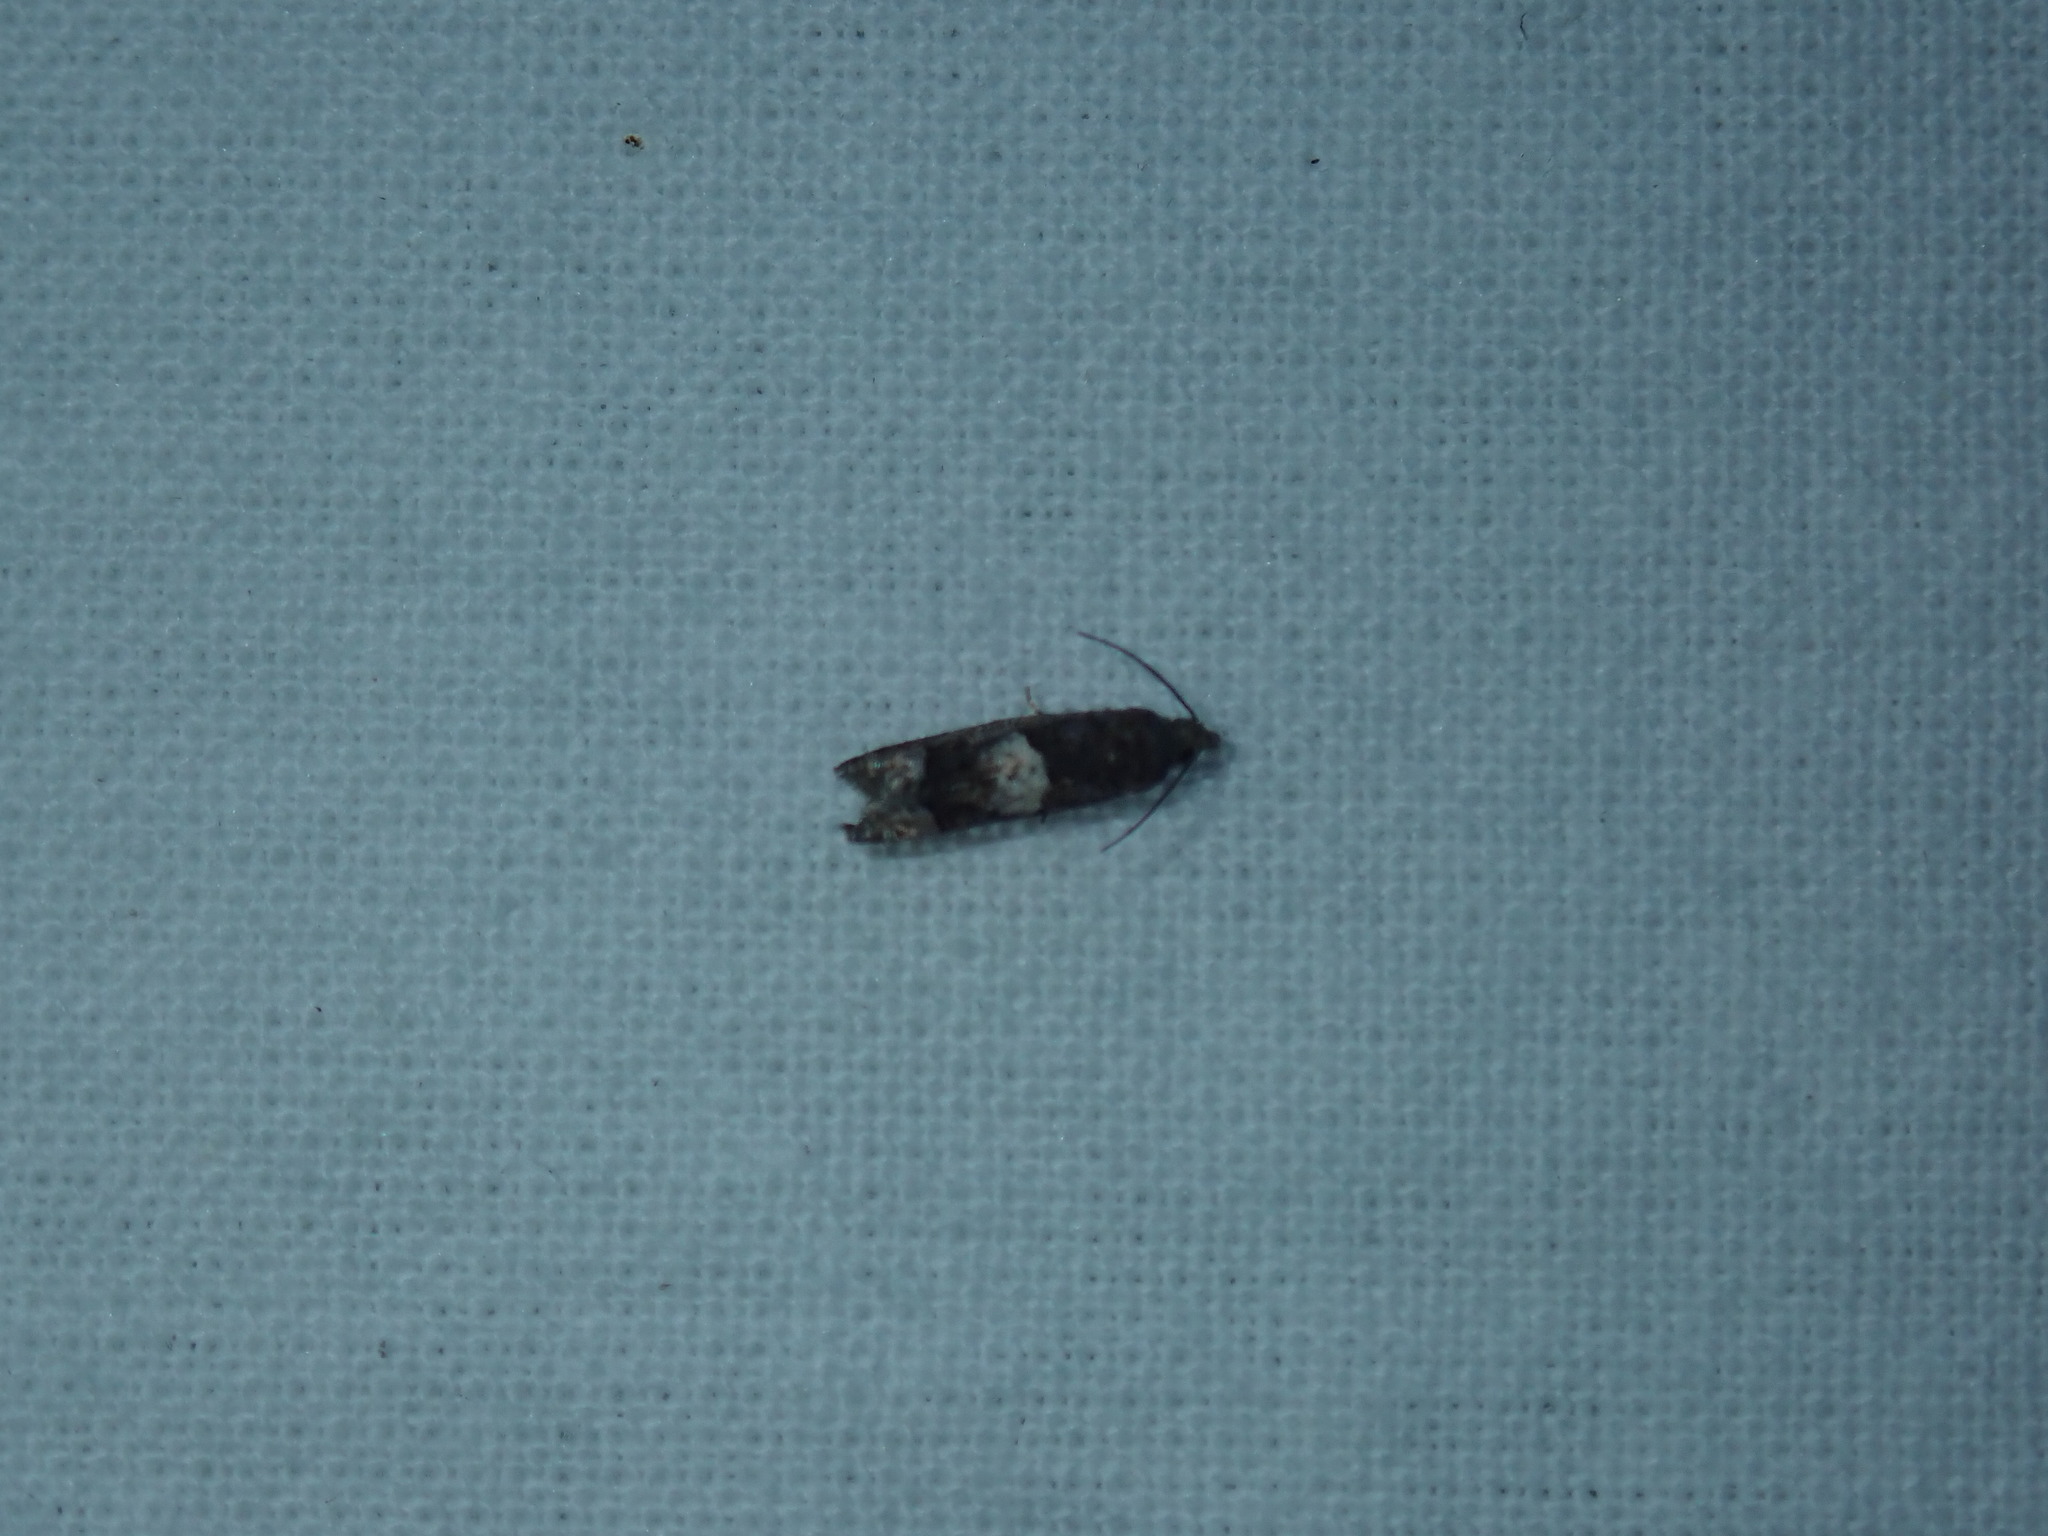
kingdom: Animalia
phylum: Arthropoda
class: Insecta
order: Lepidoptera
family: Tortricidae
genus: Eucosma
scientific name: Eucosma parmatana
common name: Aster eucosma moth
